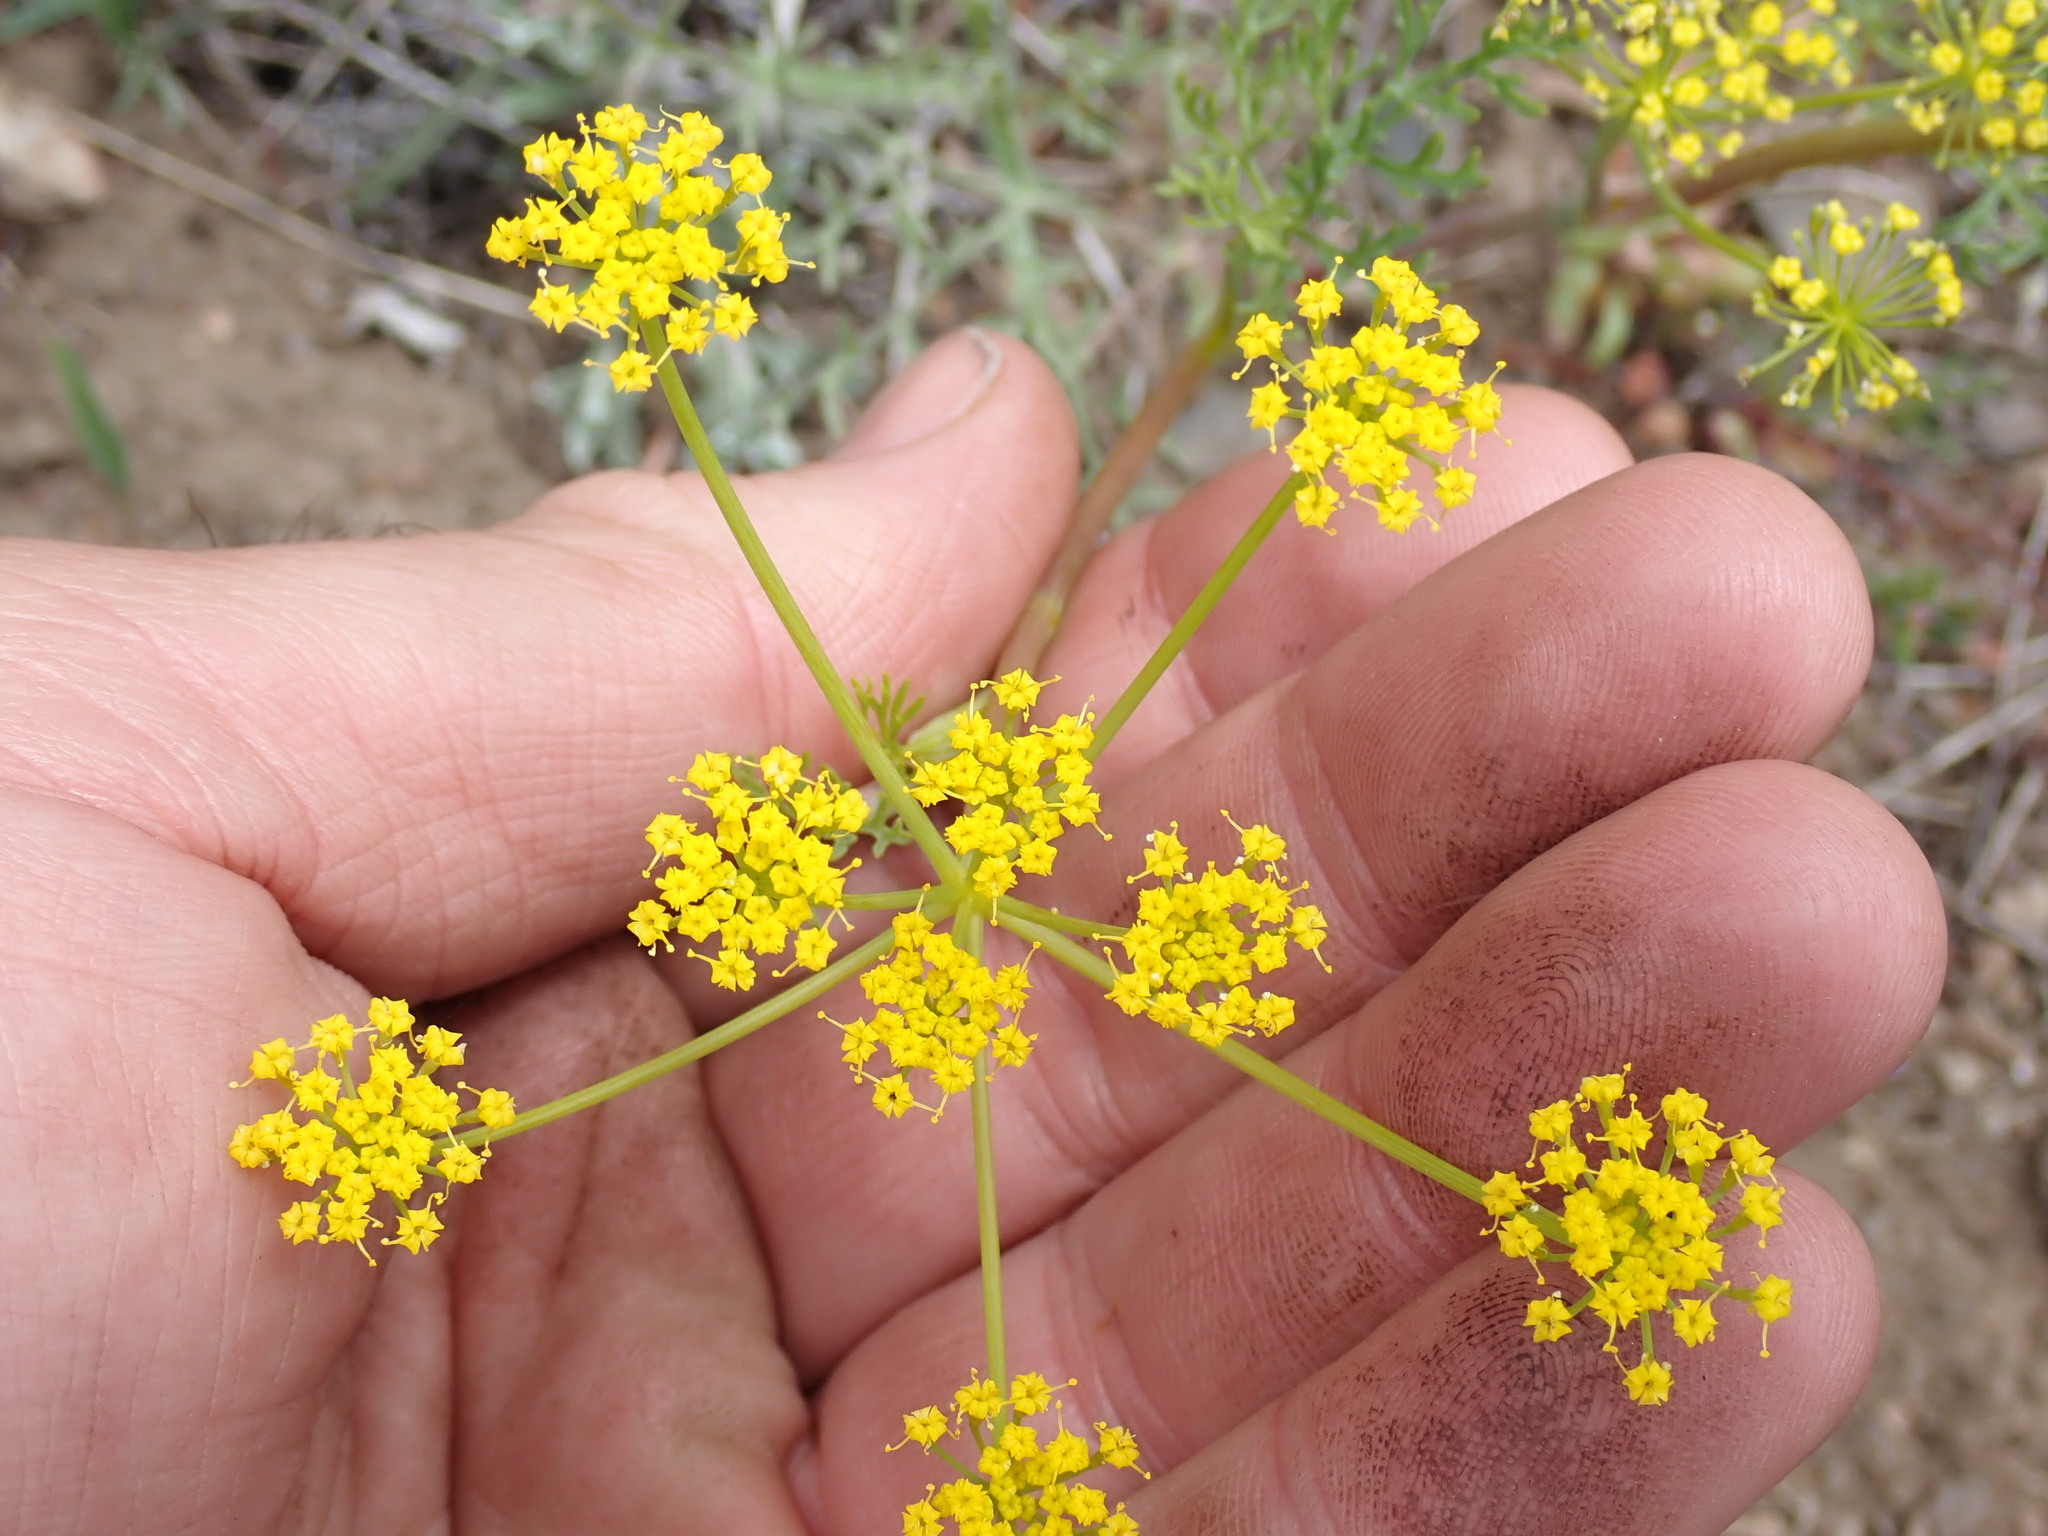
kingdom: Plantae
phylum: Tracheophyta
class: Magnoliopsida
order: Apiales
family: Apiaceae
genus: Lomatium
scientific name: Lomatium ambiguum
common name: Lacy lomatium
